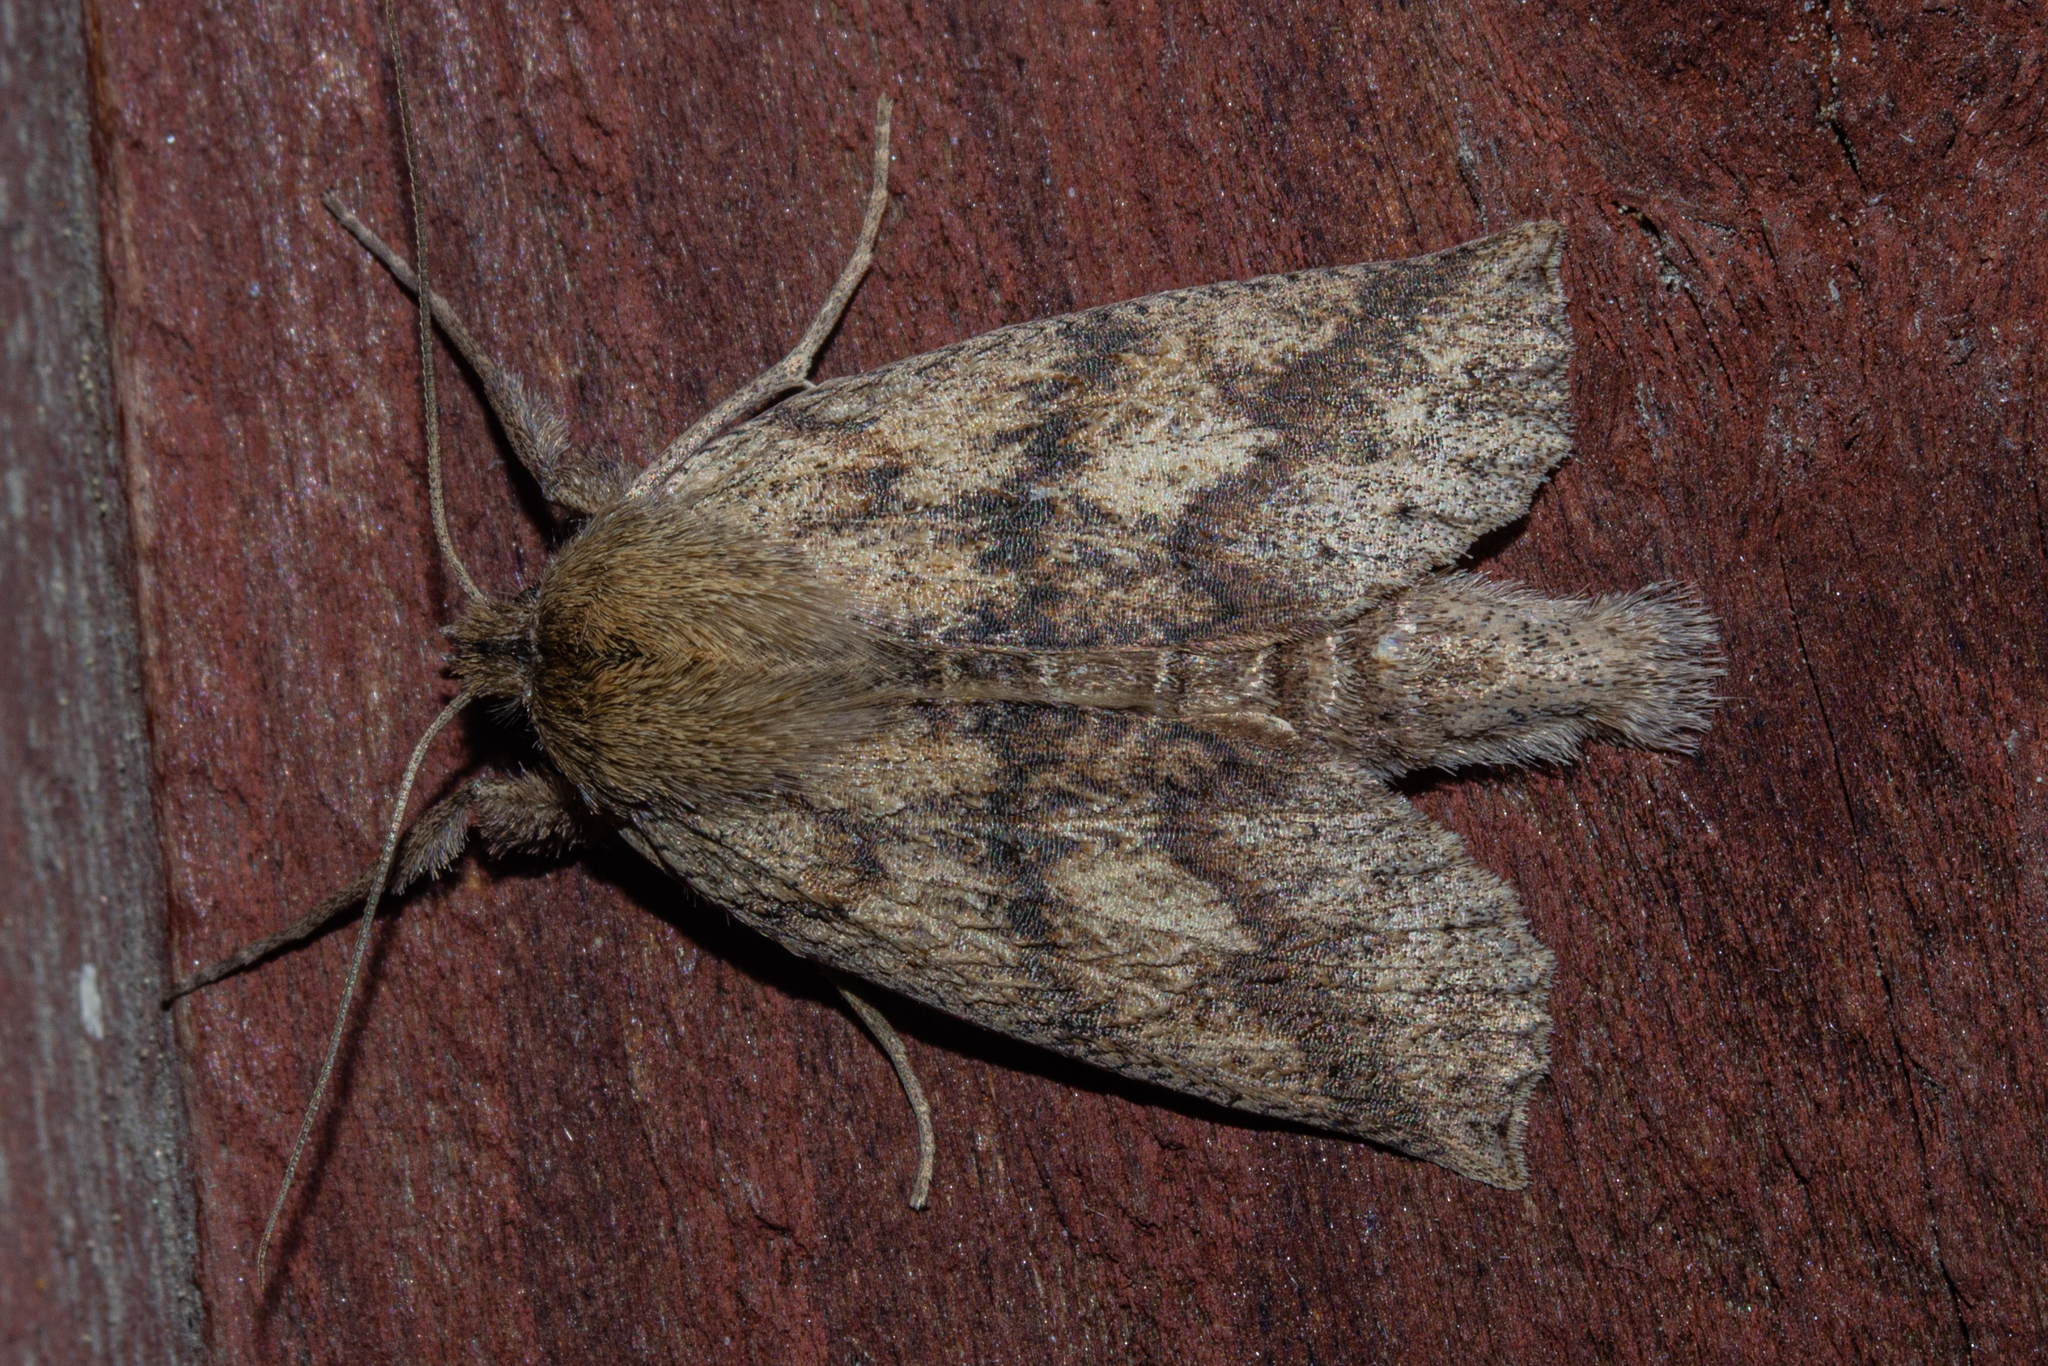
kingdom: Animalia
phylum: Arthropoda
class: Insecta
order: Lepidoptera
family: Geometridae
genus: Declana
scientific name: Declana leptomera
